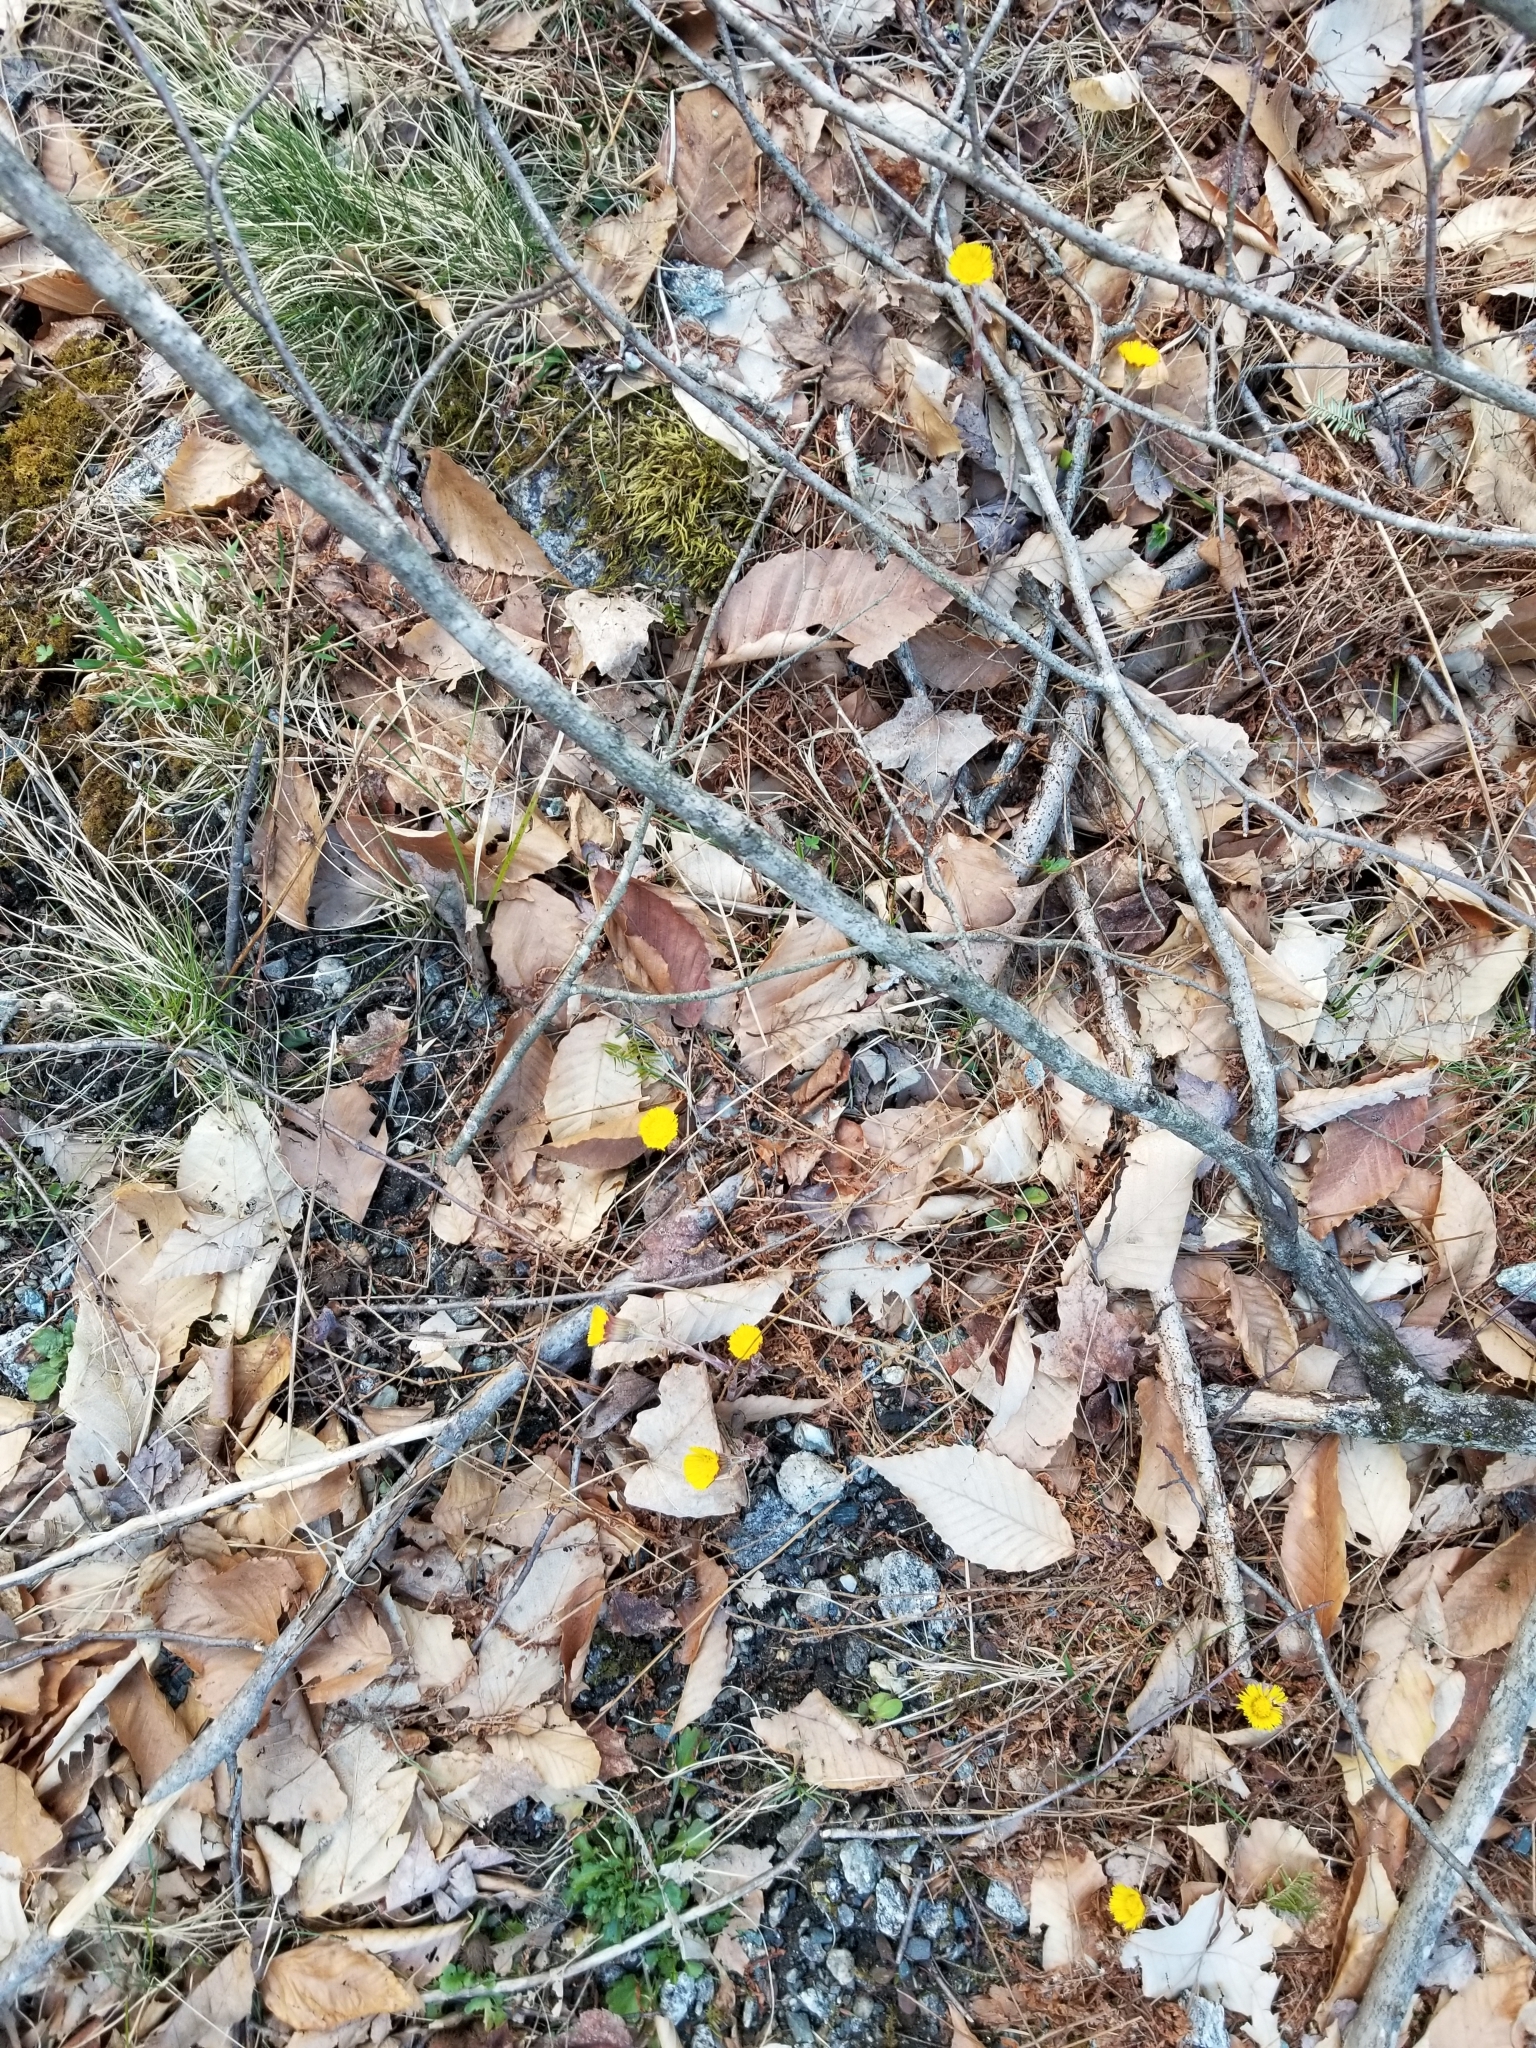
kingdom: Plantae
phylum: Tracheophyta
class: Magnoliopsida
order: Asterales
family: Asteraceae
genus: Tussilago
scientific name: Tussilago farfara
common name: Coltsfoot
